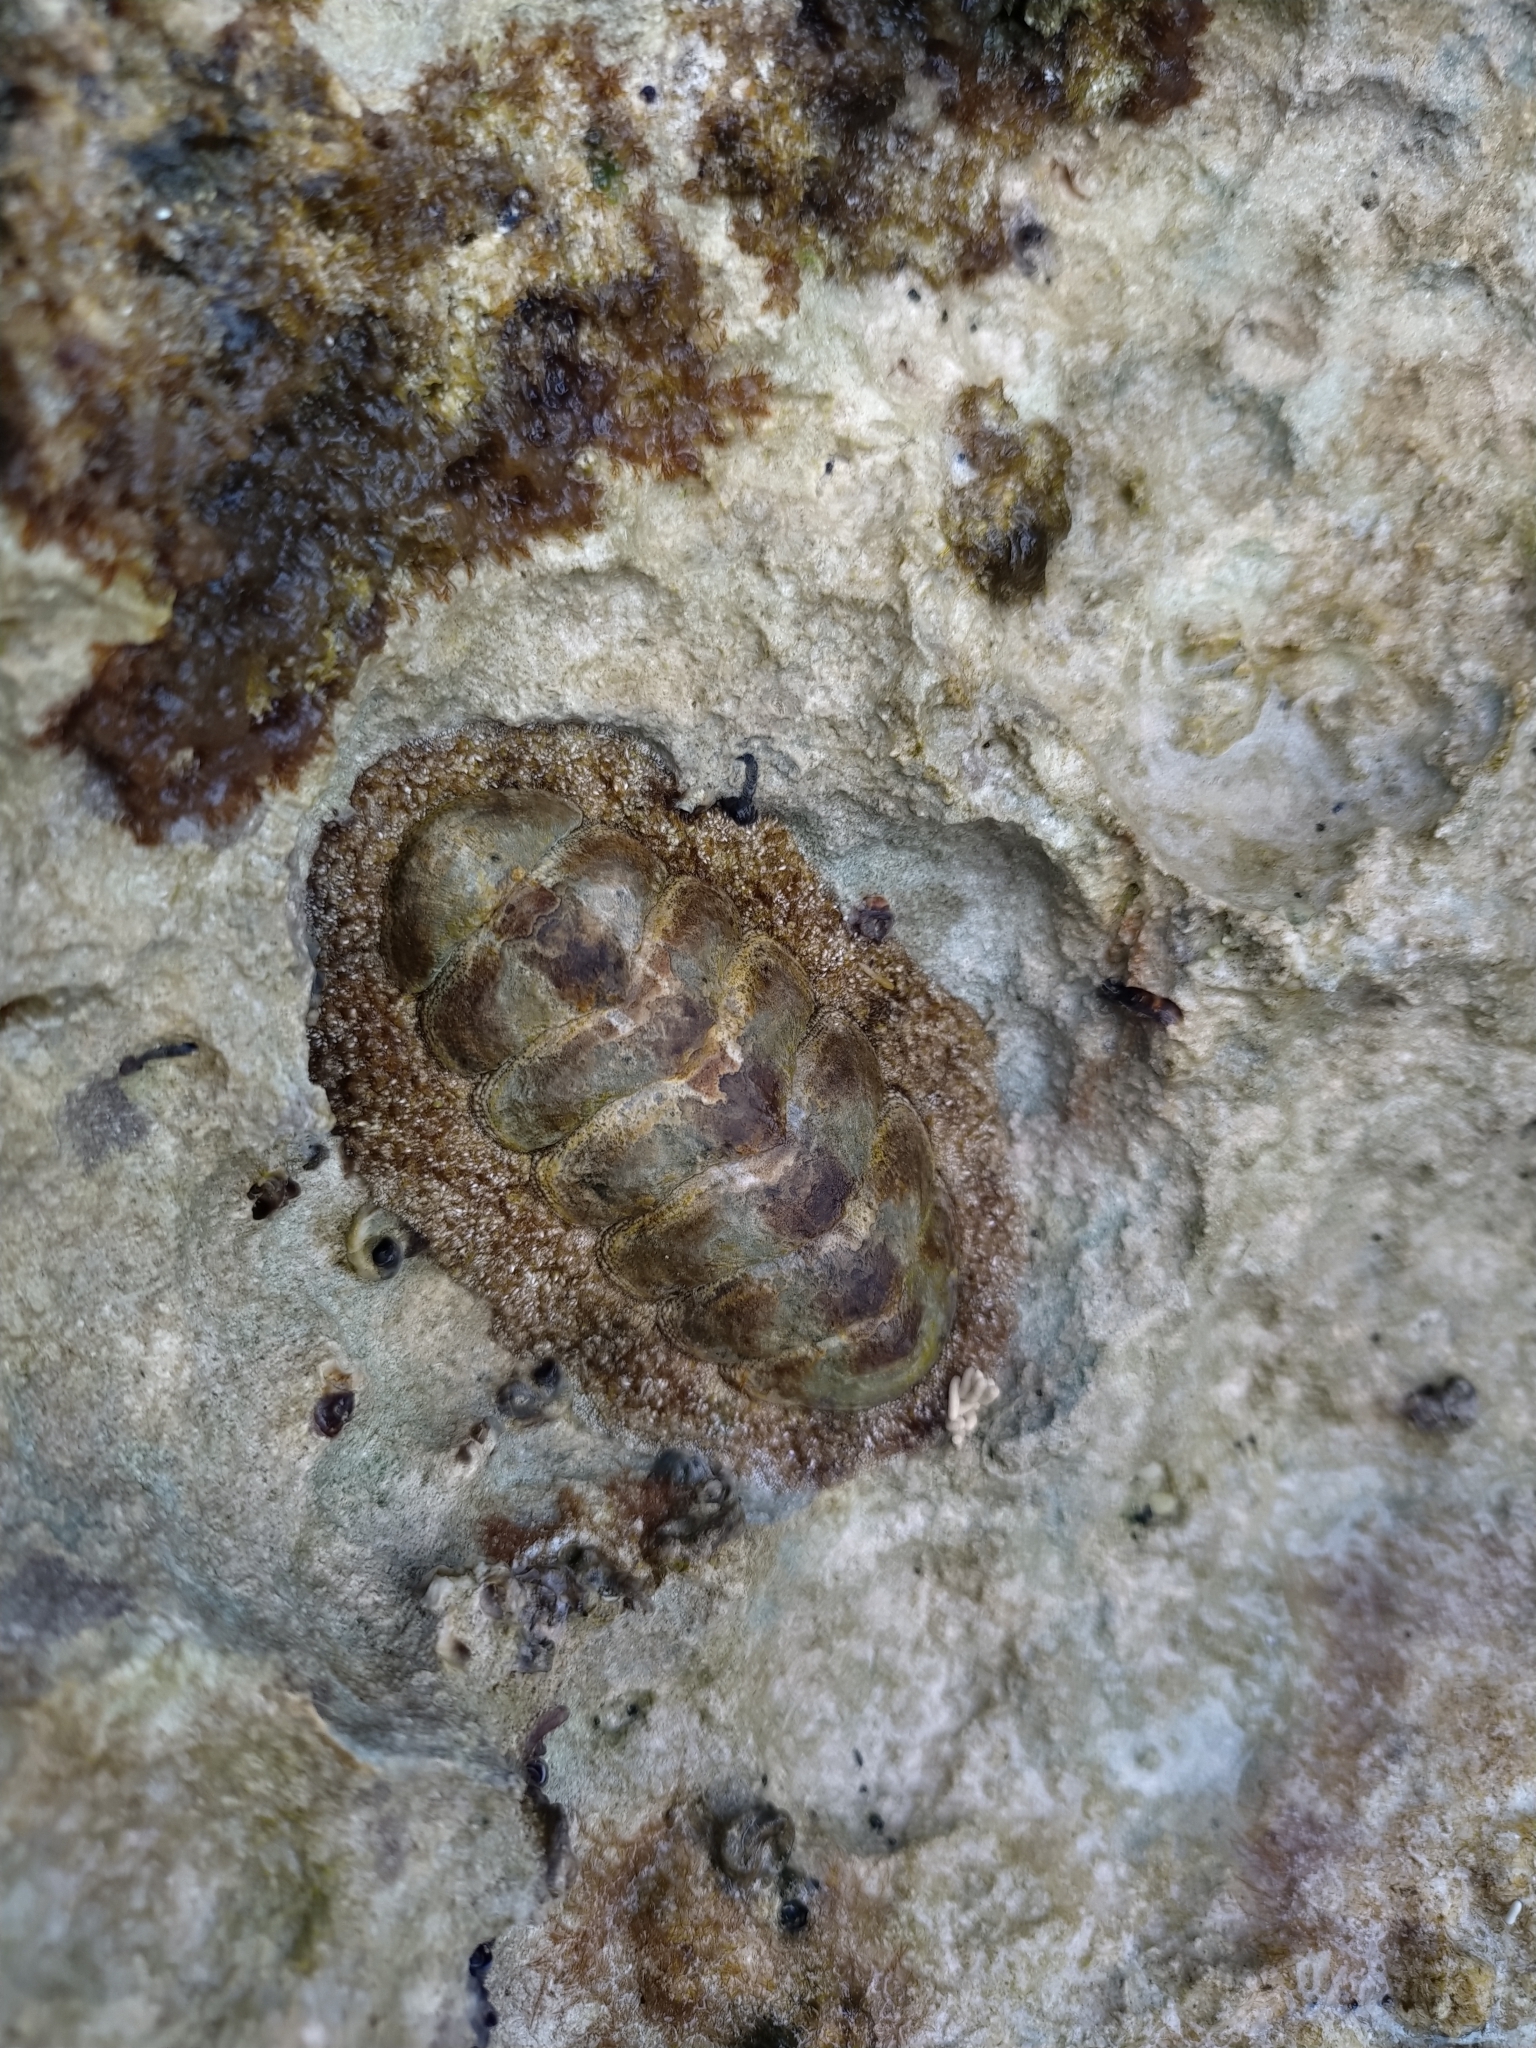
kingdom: Animalia
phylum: Mollusca
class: Polyplacophora
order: Chitonida
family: Chitonidae
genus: Acanthopleura
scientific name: Acanthopleura granulata
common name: West indian fuzzy chiton
